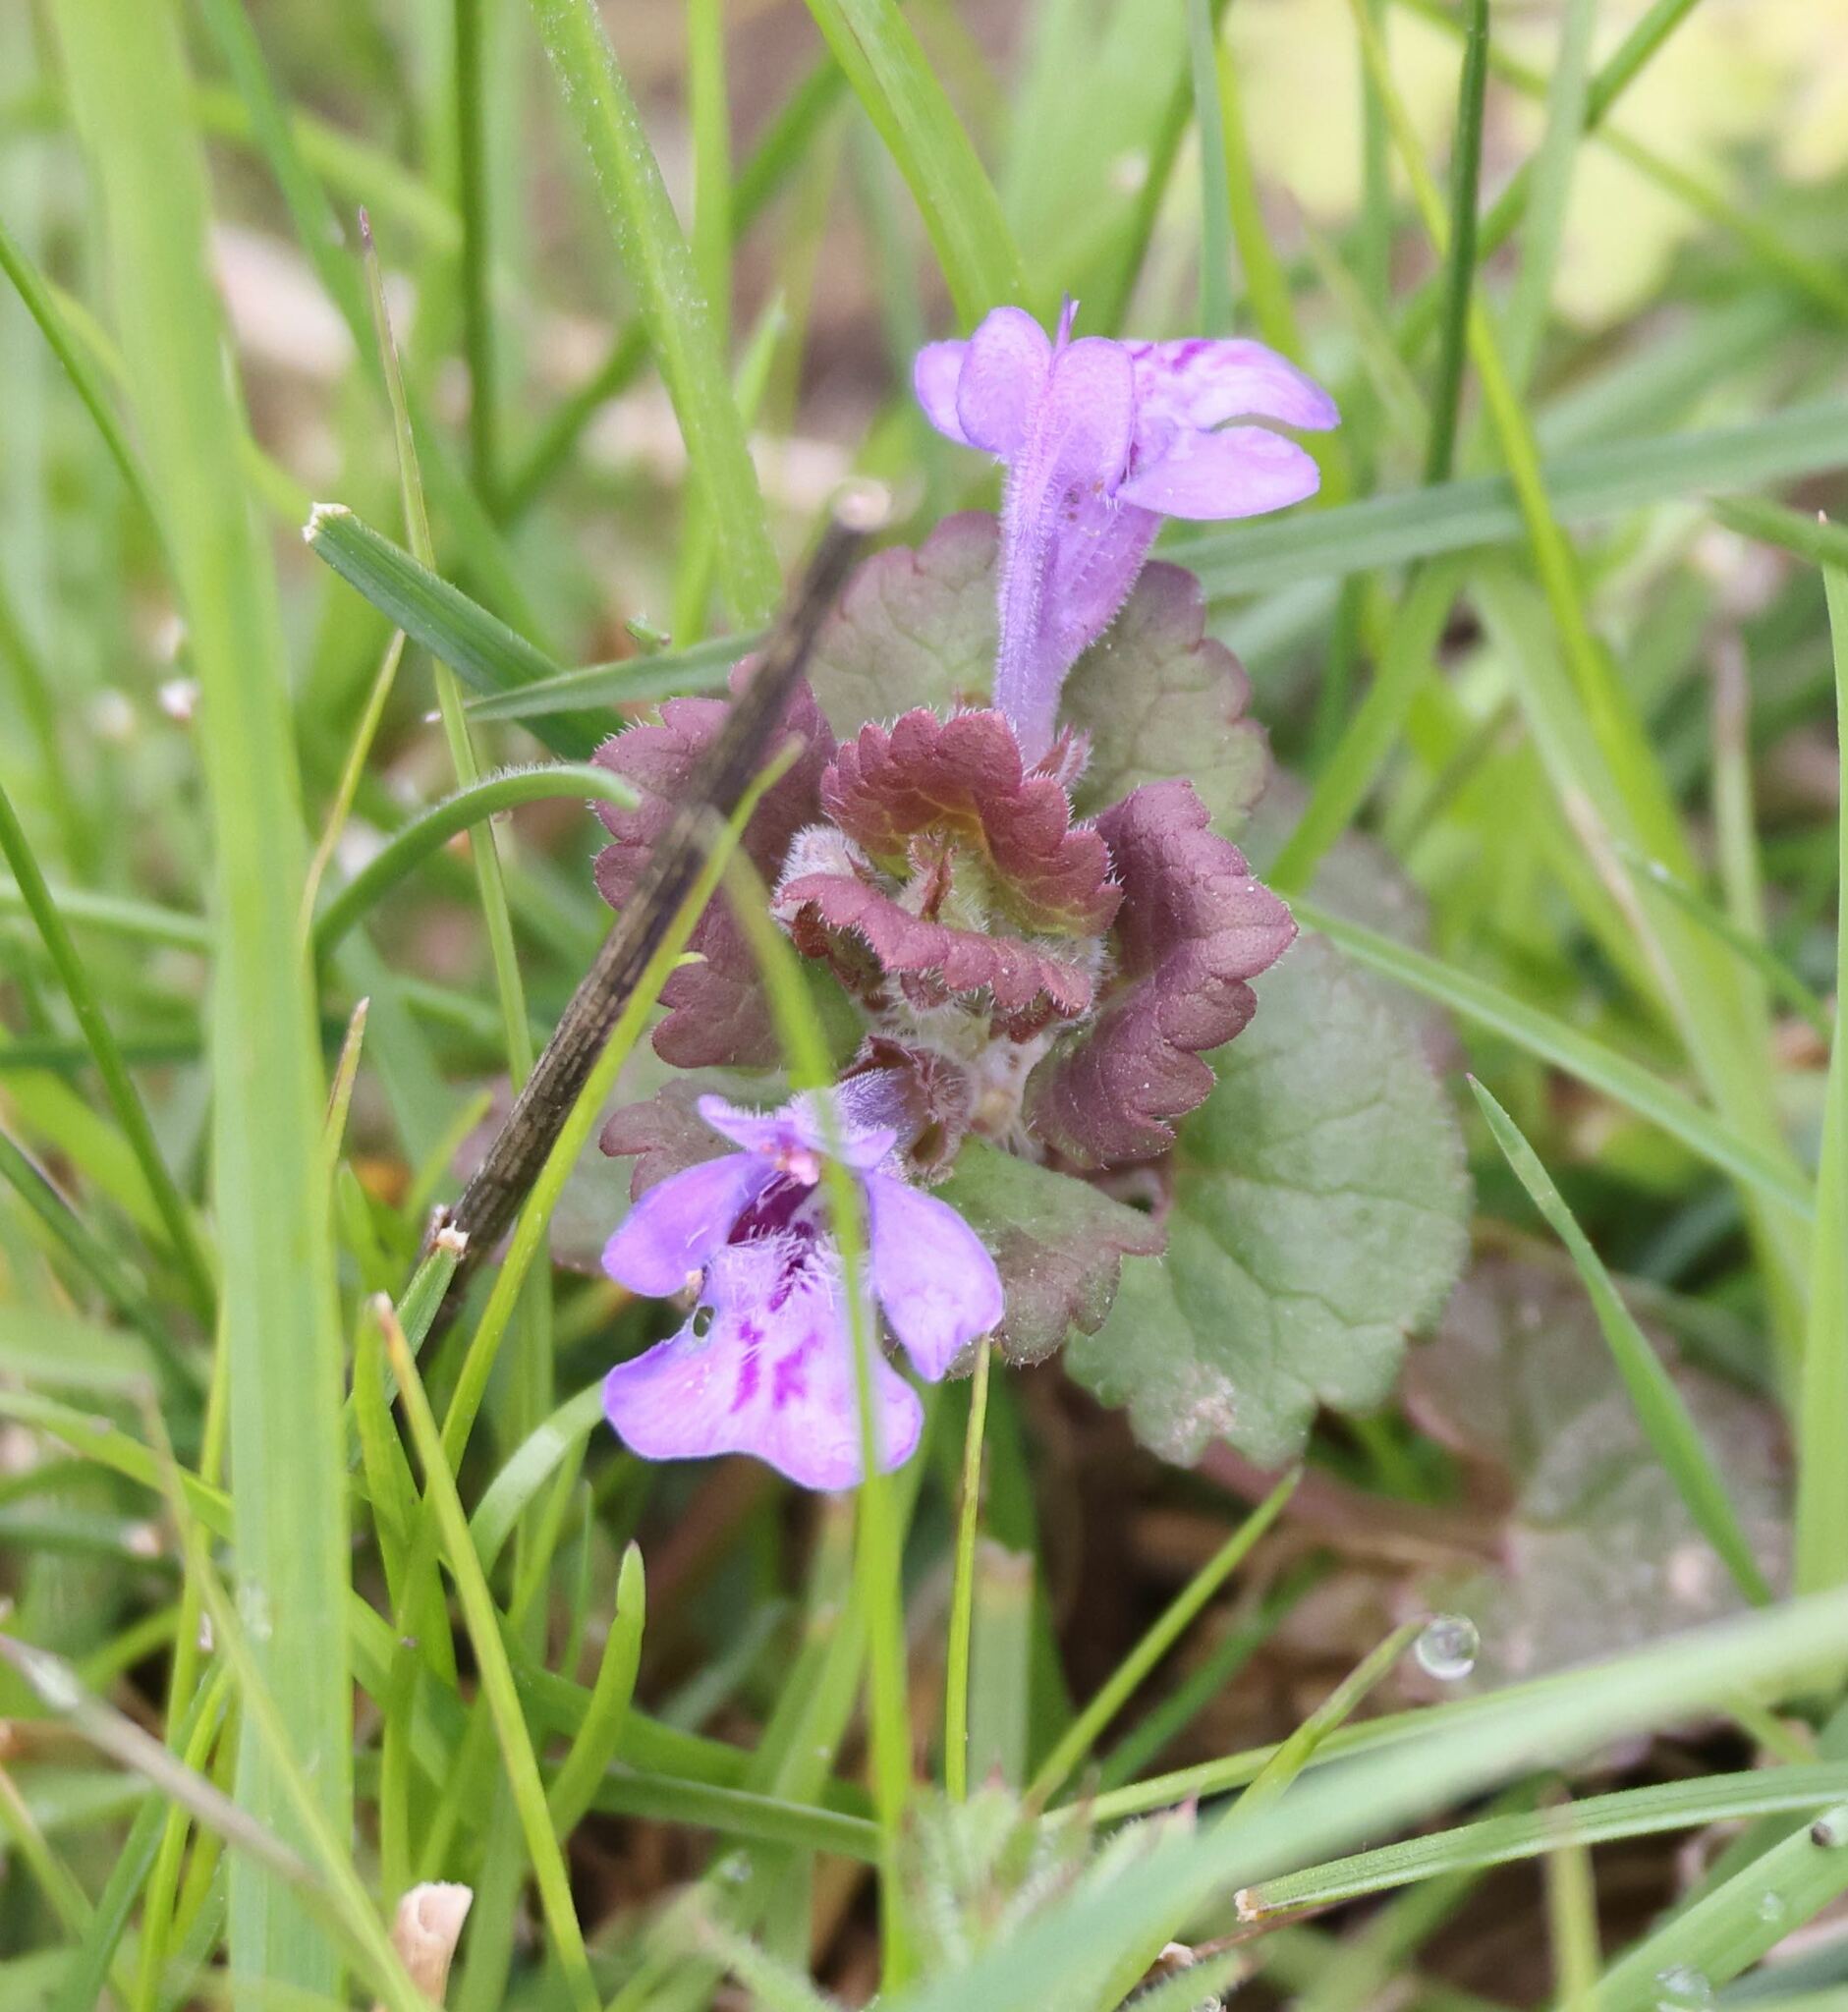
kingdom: Plantae
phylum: Tracheophyta
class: Magnoliopsida
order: Lamiales
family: Lamiaceae
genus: Glechoma
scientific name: Glechoma hederacea
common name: Ground ivy
